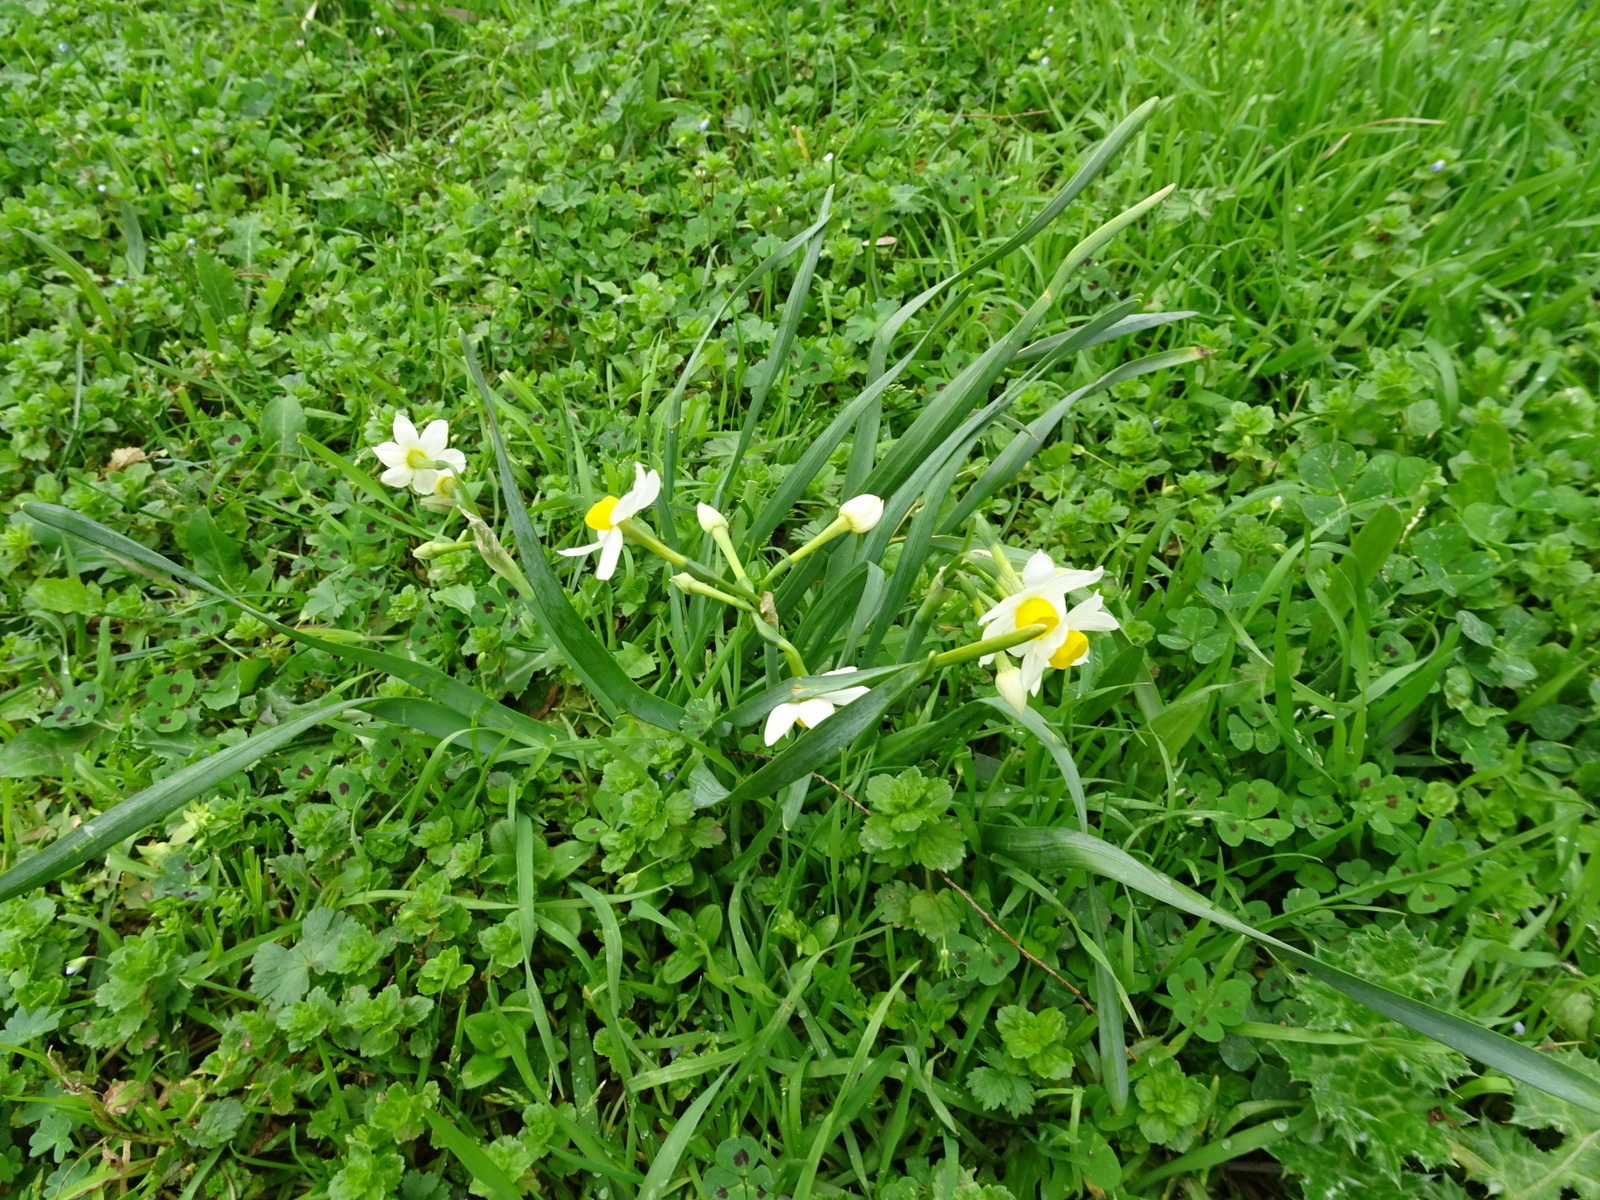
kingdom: Plantae
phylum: Tracheophyta
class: Liliopsida
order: Asparagales
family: Amaryllidaceae
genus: Narcissus
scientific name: Narcissus tazetta
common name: Bunch-flowered daffodil
